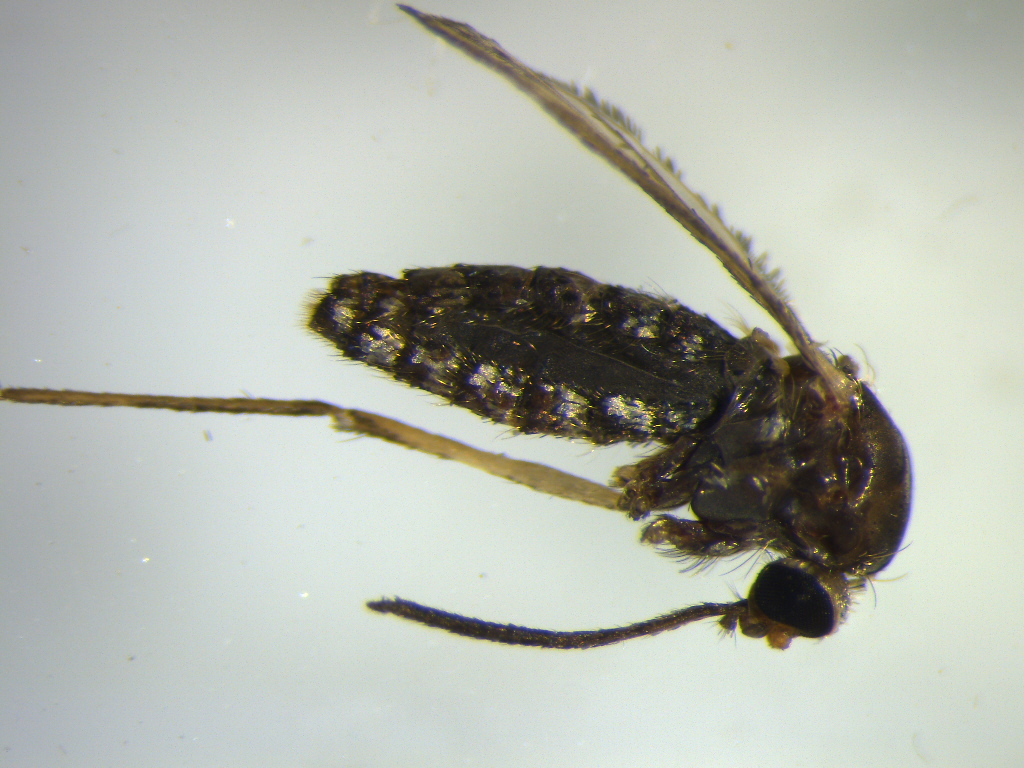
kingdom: Animalia
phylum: Arthropoda
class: Insecta
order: Diptera
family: Culicidae
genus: Coquillettidia
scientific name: Coquillettidia iracunda
